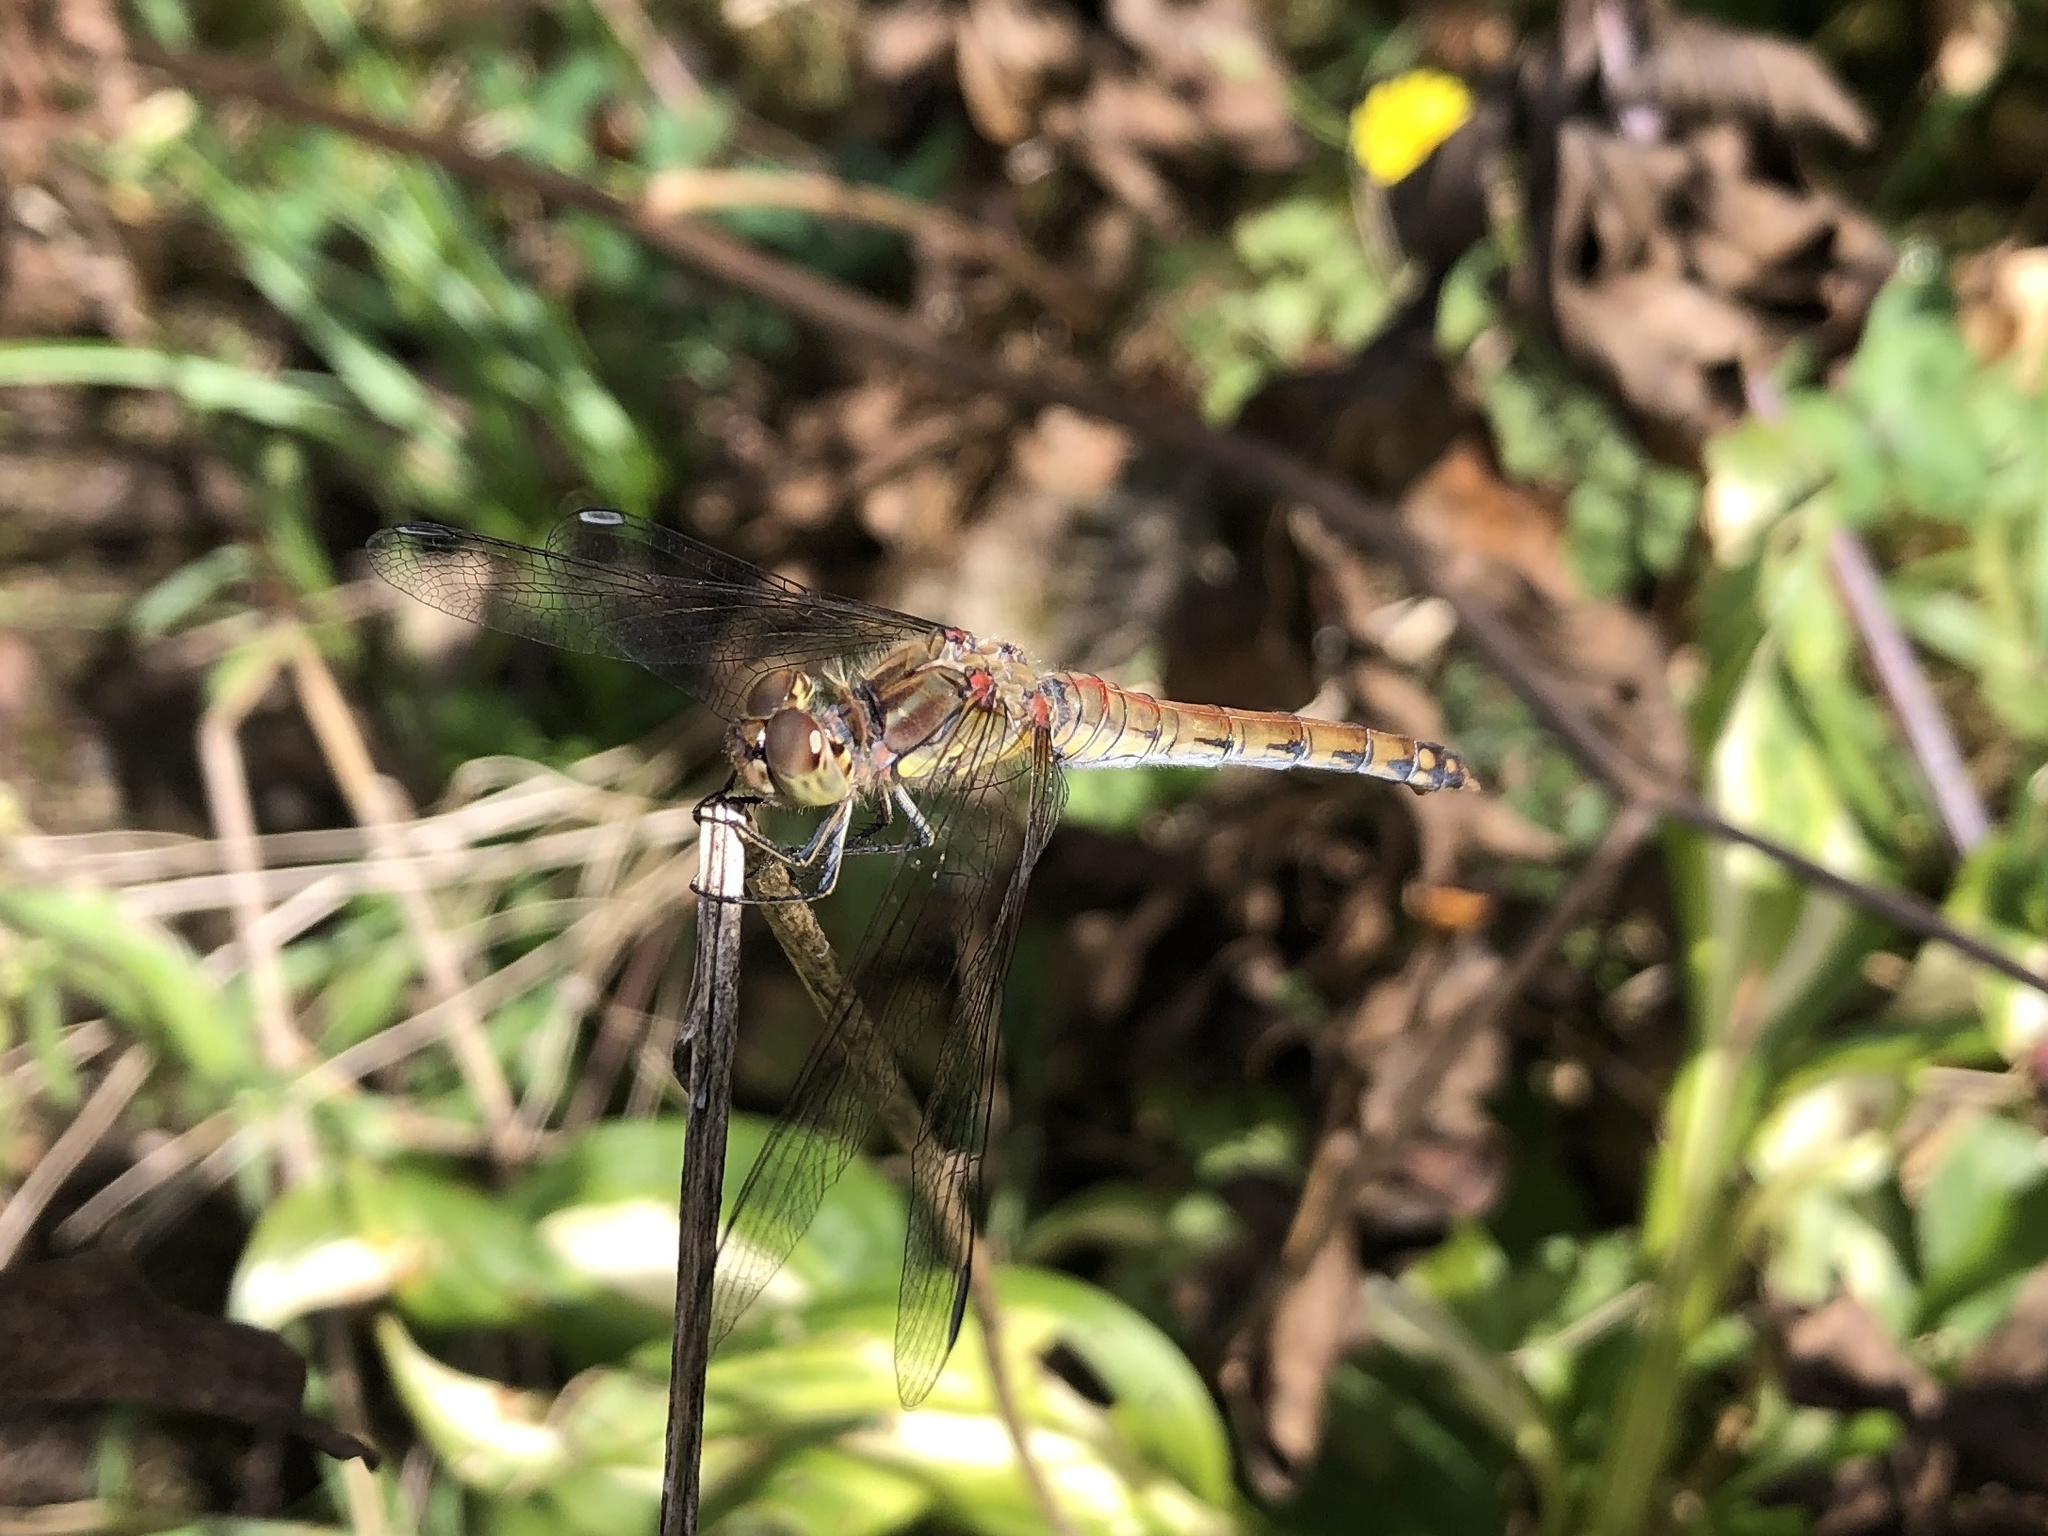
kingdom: Animalia
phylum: Arthropoda
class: Insecta
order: Odonata
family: Libellulidae
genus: Sympetrum
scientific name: Sympetrum striolatum
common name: Common darter
